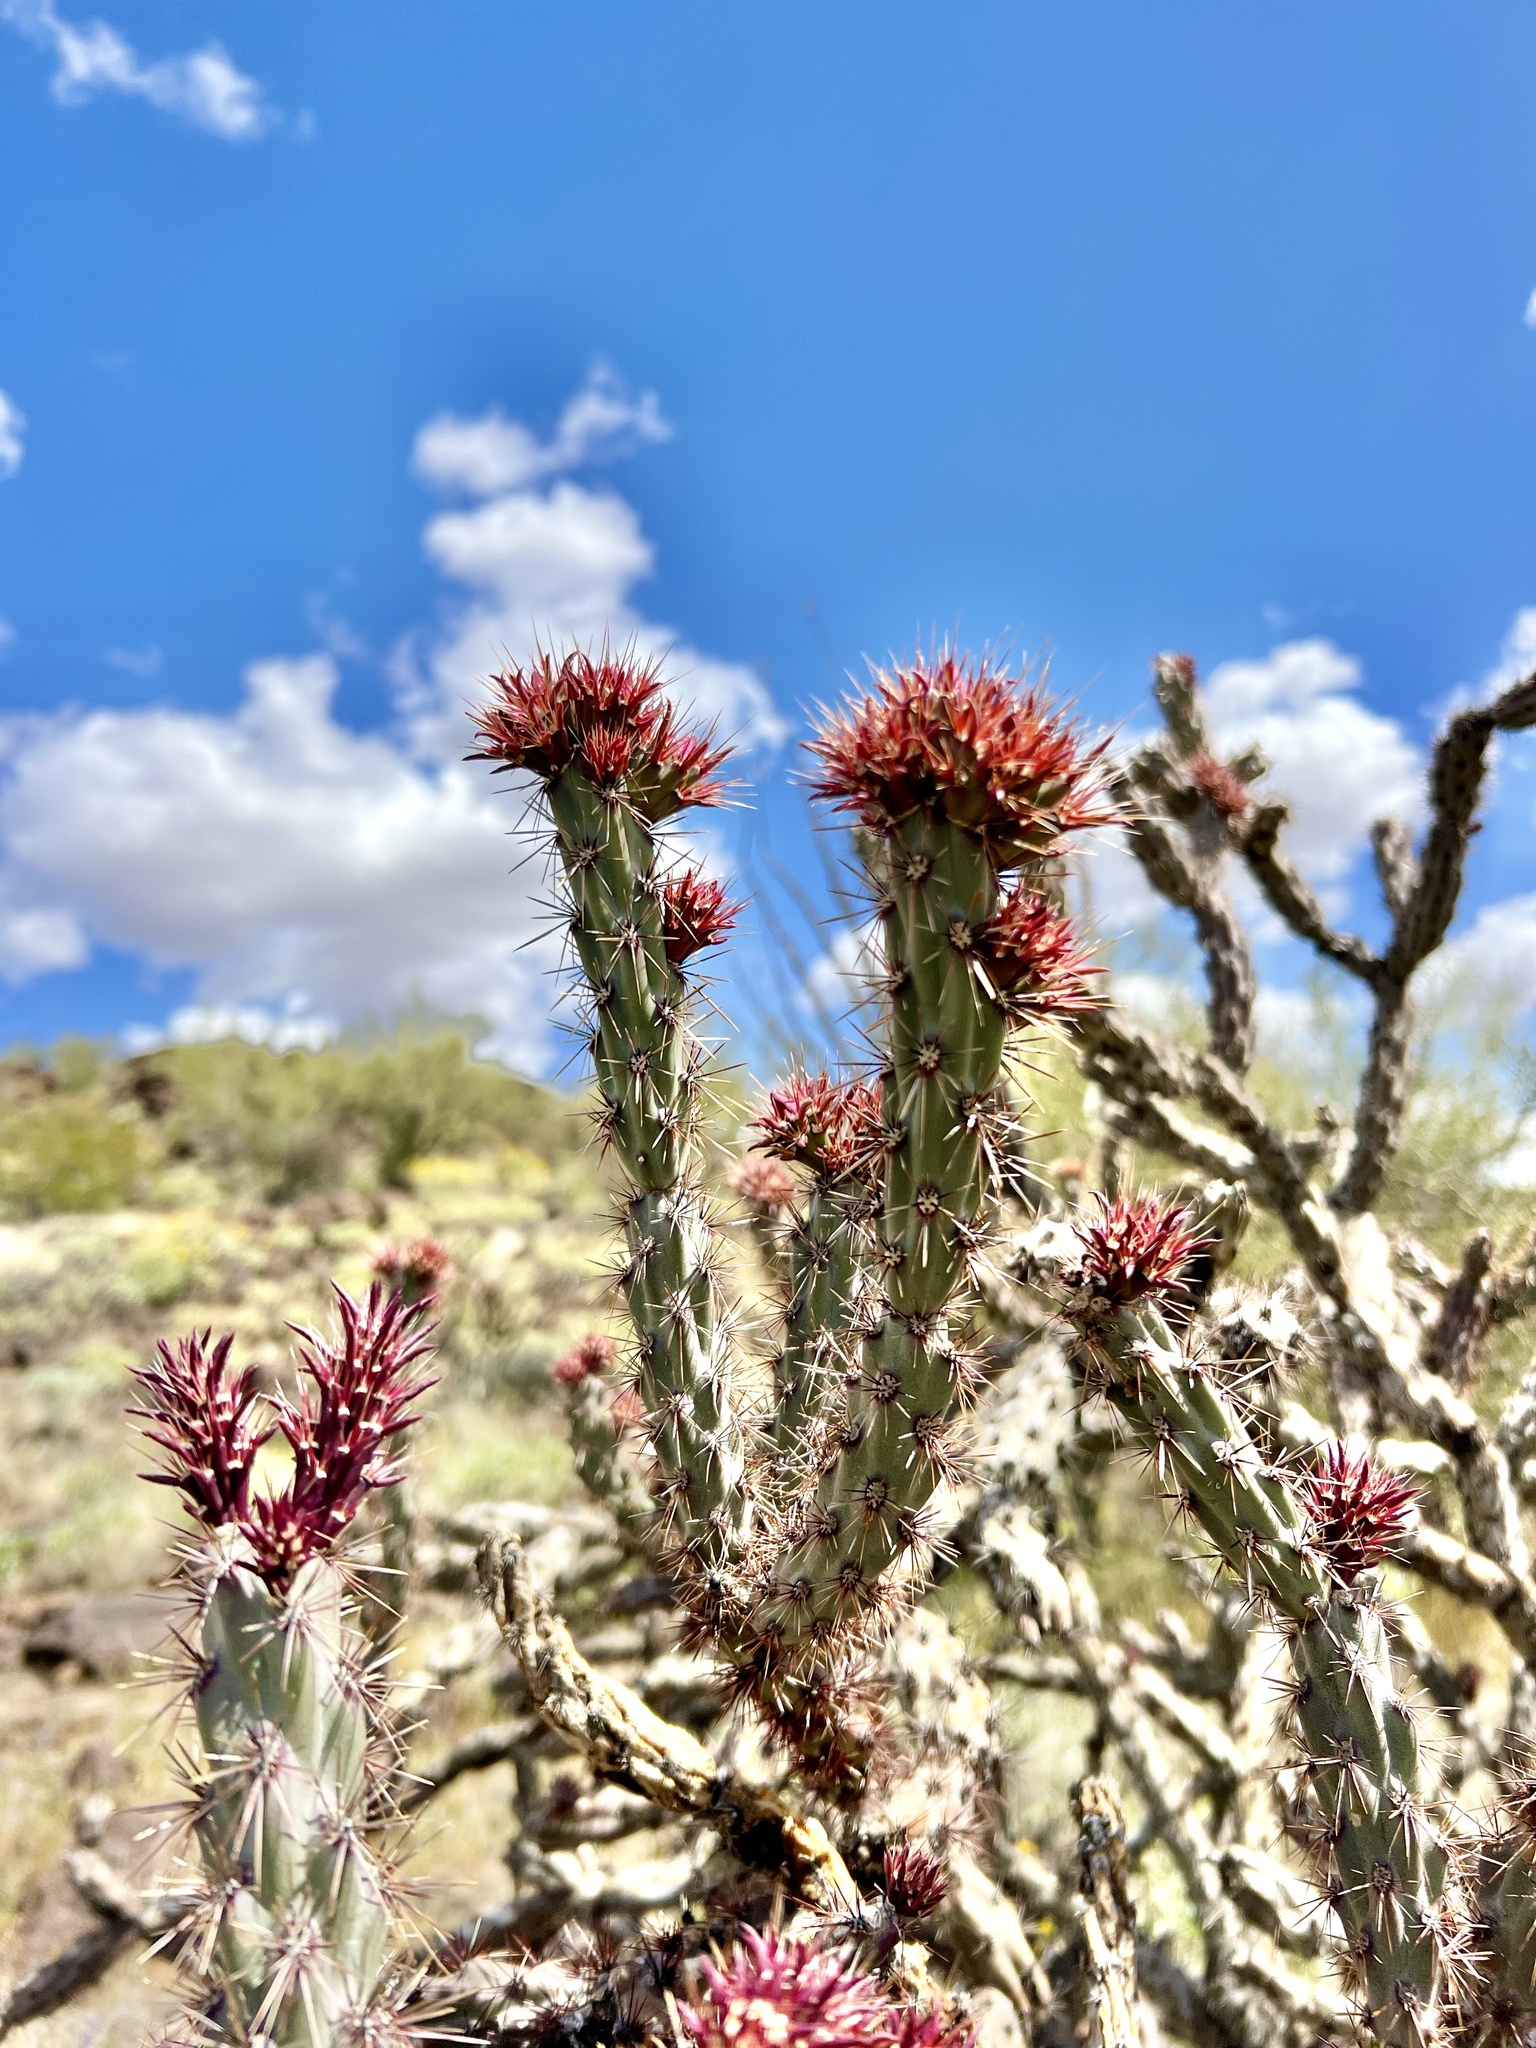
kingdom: Plantae
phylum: Tracheophyta
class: Magnoliopsida
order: Caryophyllales
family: Cactaceae
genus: Cylindropuntia
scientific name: Cylindropuntia acanthocarpa
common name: Buckhorn cholla
